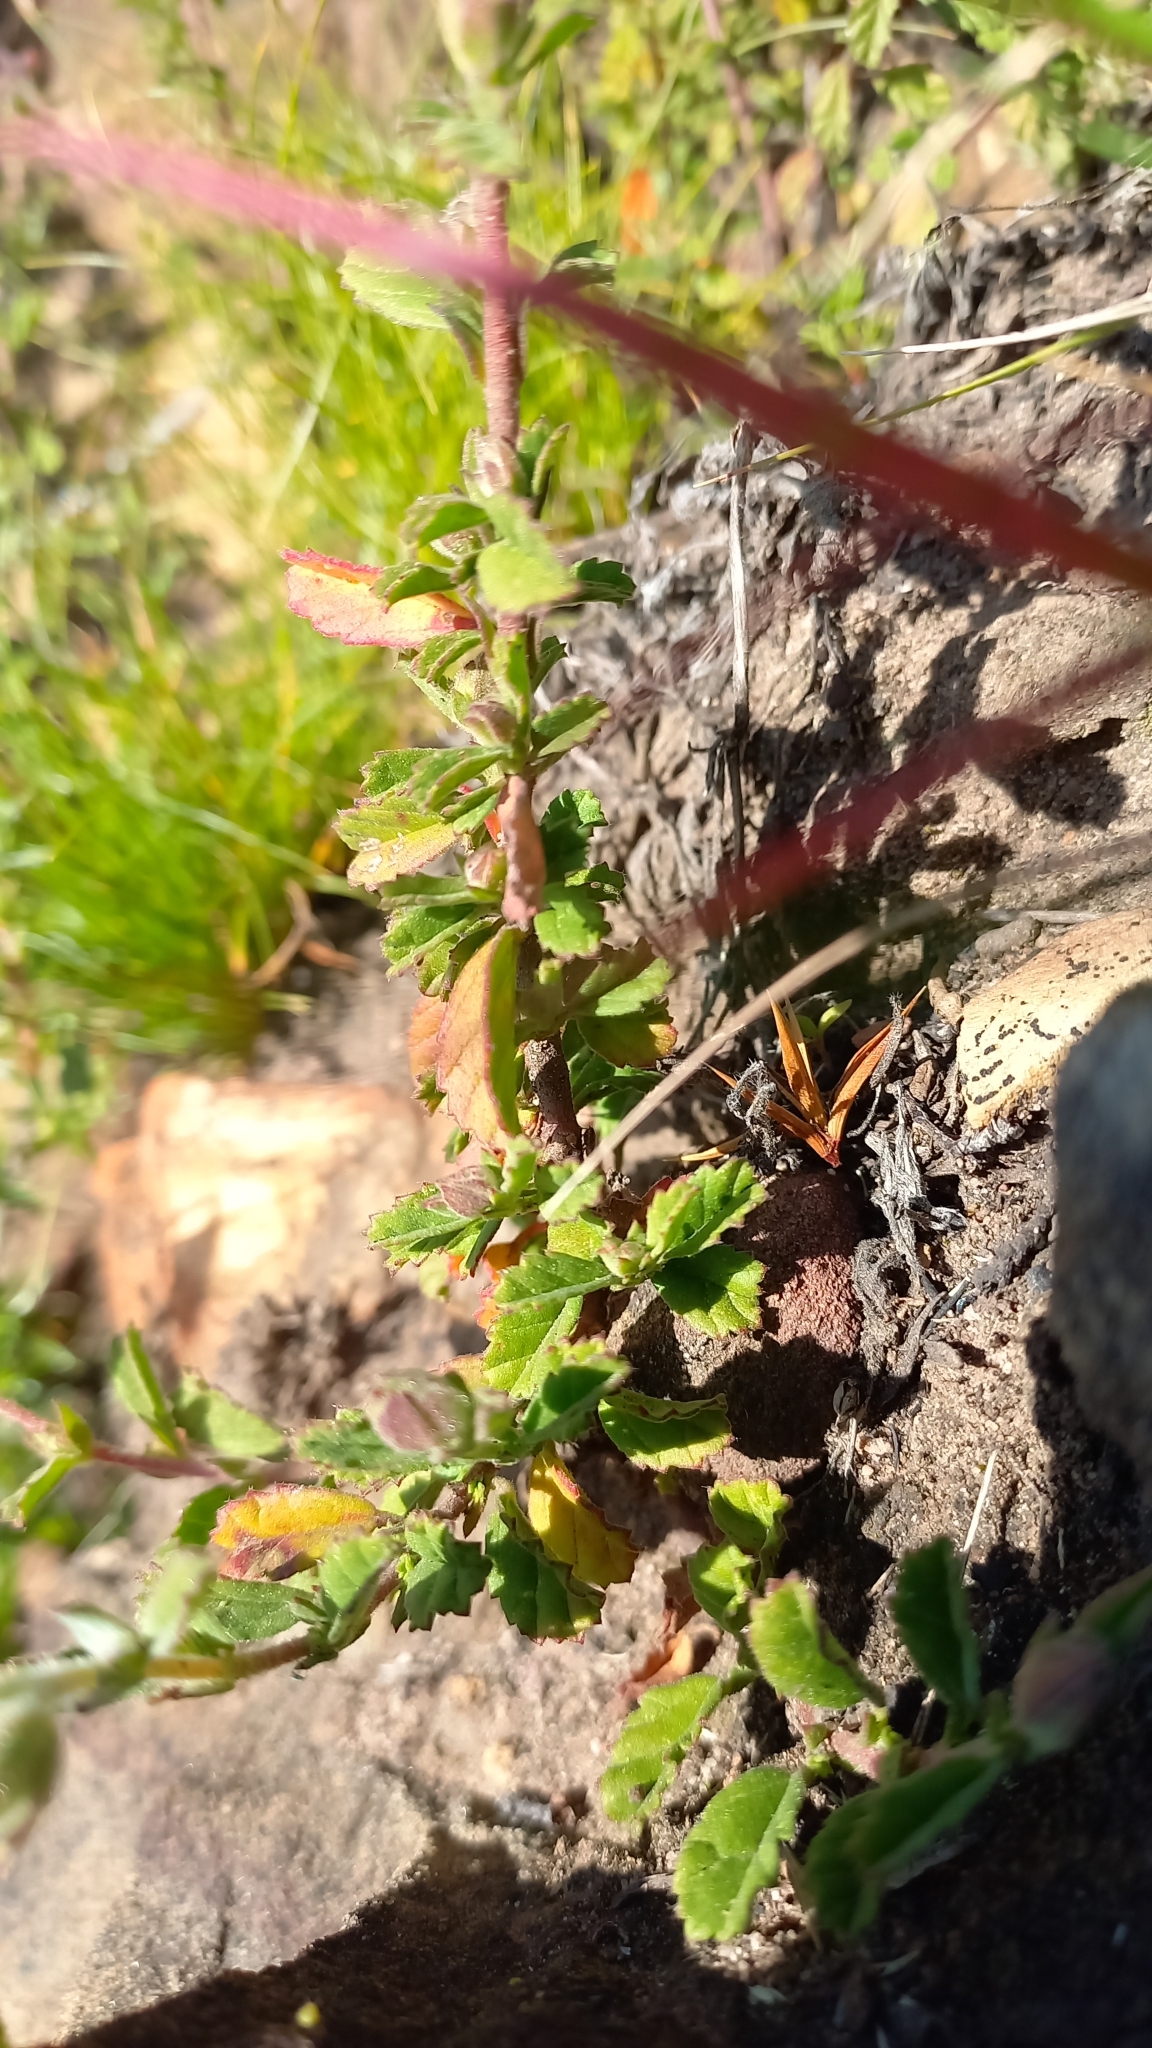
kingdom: Plantae
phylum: Tracheophyta
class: Magnoliopsida
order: Lamiales
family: Scrophulariaceae
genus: Zaluzianskya
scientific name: Zaluzianskya capensis
